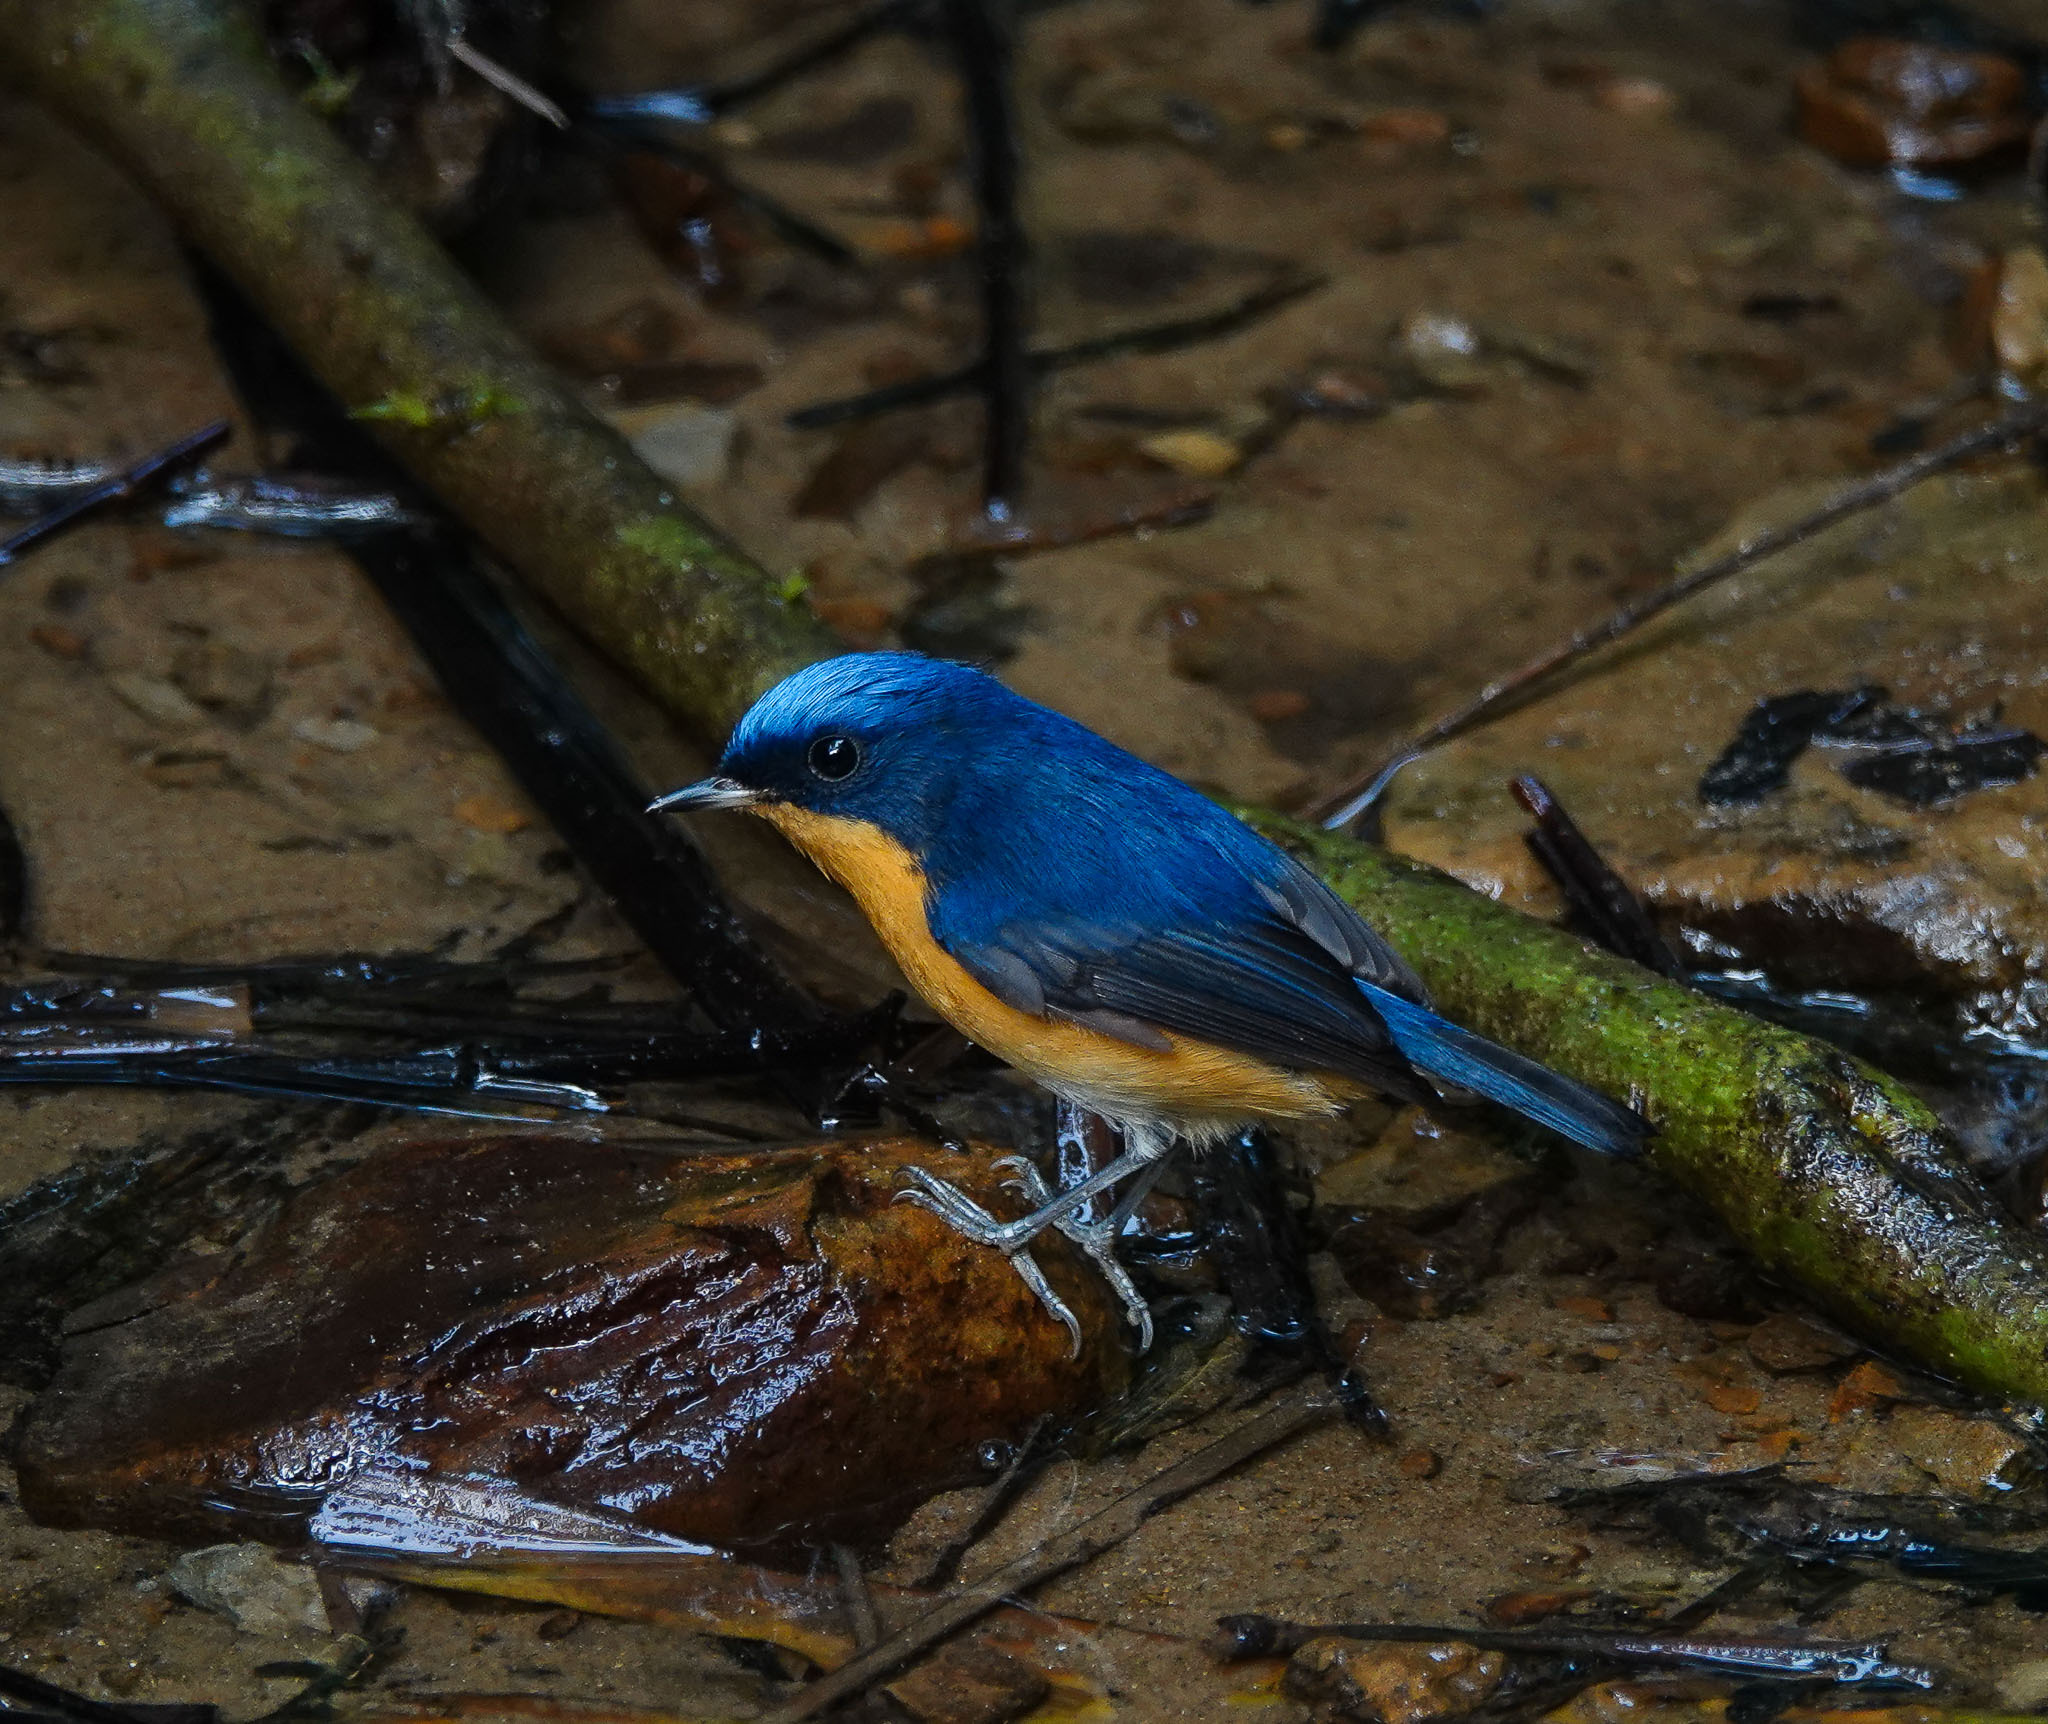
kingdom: Animalia
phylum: Chordata
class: Aves
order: Passeriformes
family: Muscicapidae
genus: Ficedula
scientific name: Ficedula hodgsoni
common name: Pygmy flycatcher
